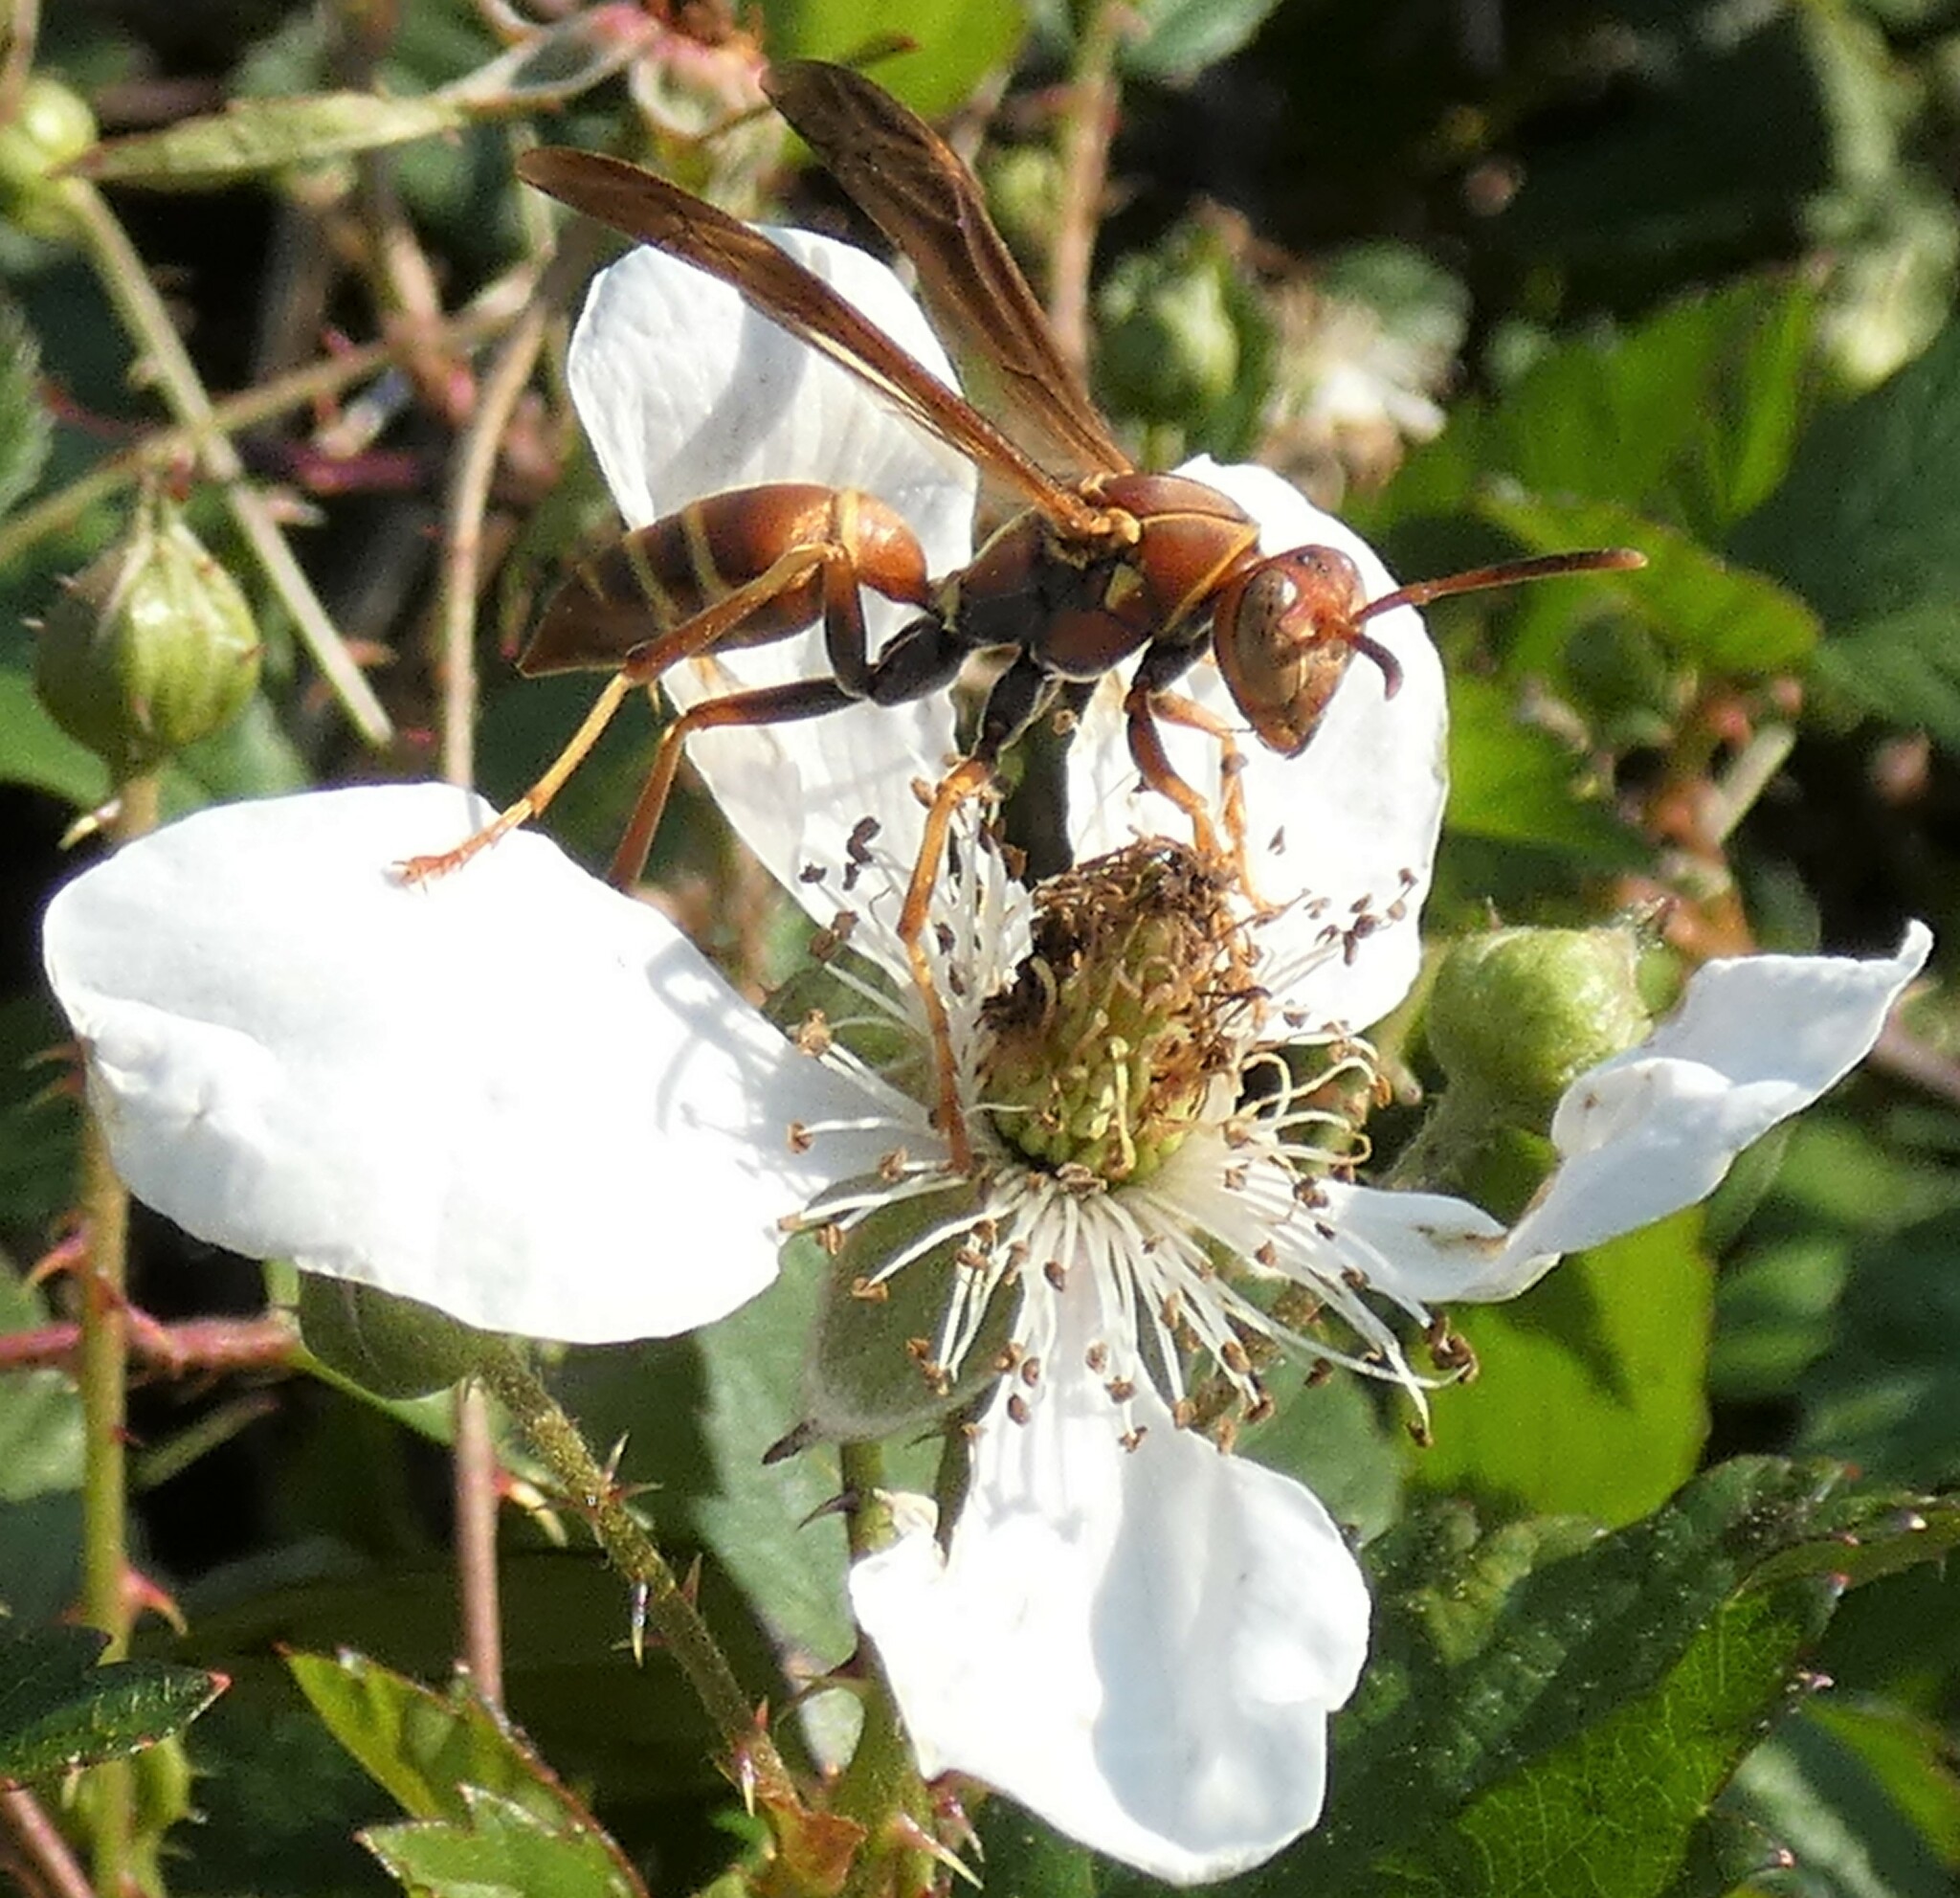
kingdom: Animalia
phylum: Arthropoda
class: Insecta
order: Hymenoptera
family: Eumenidae
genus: Polistes
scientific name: Polistes dorsalis
